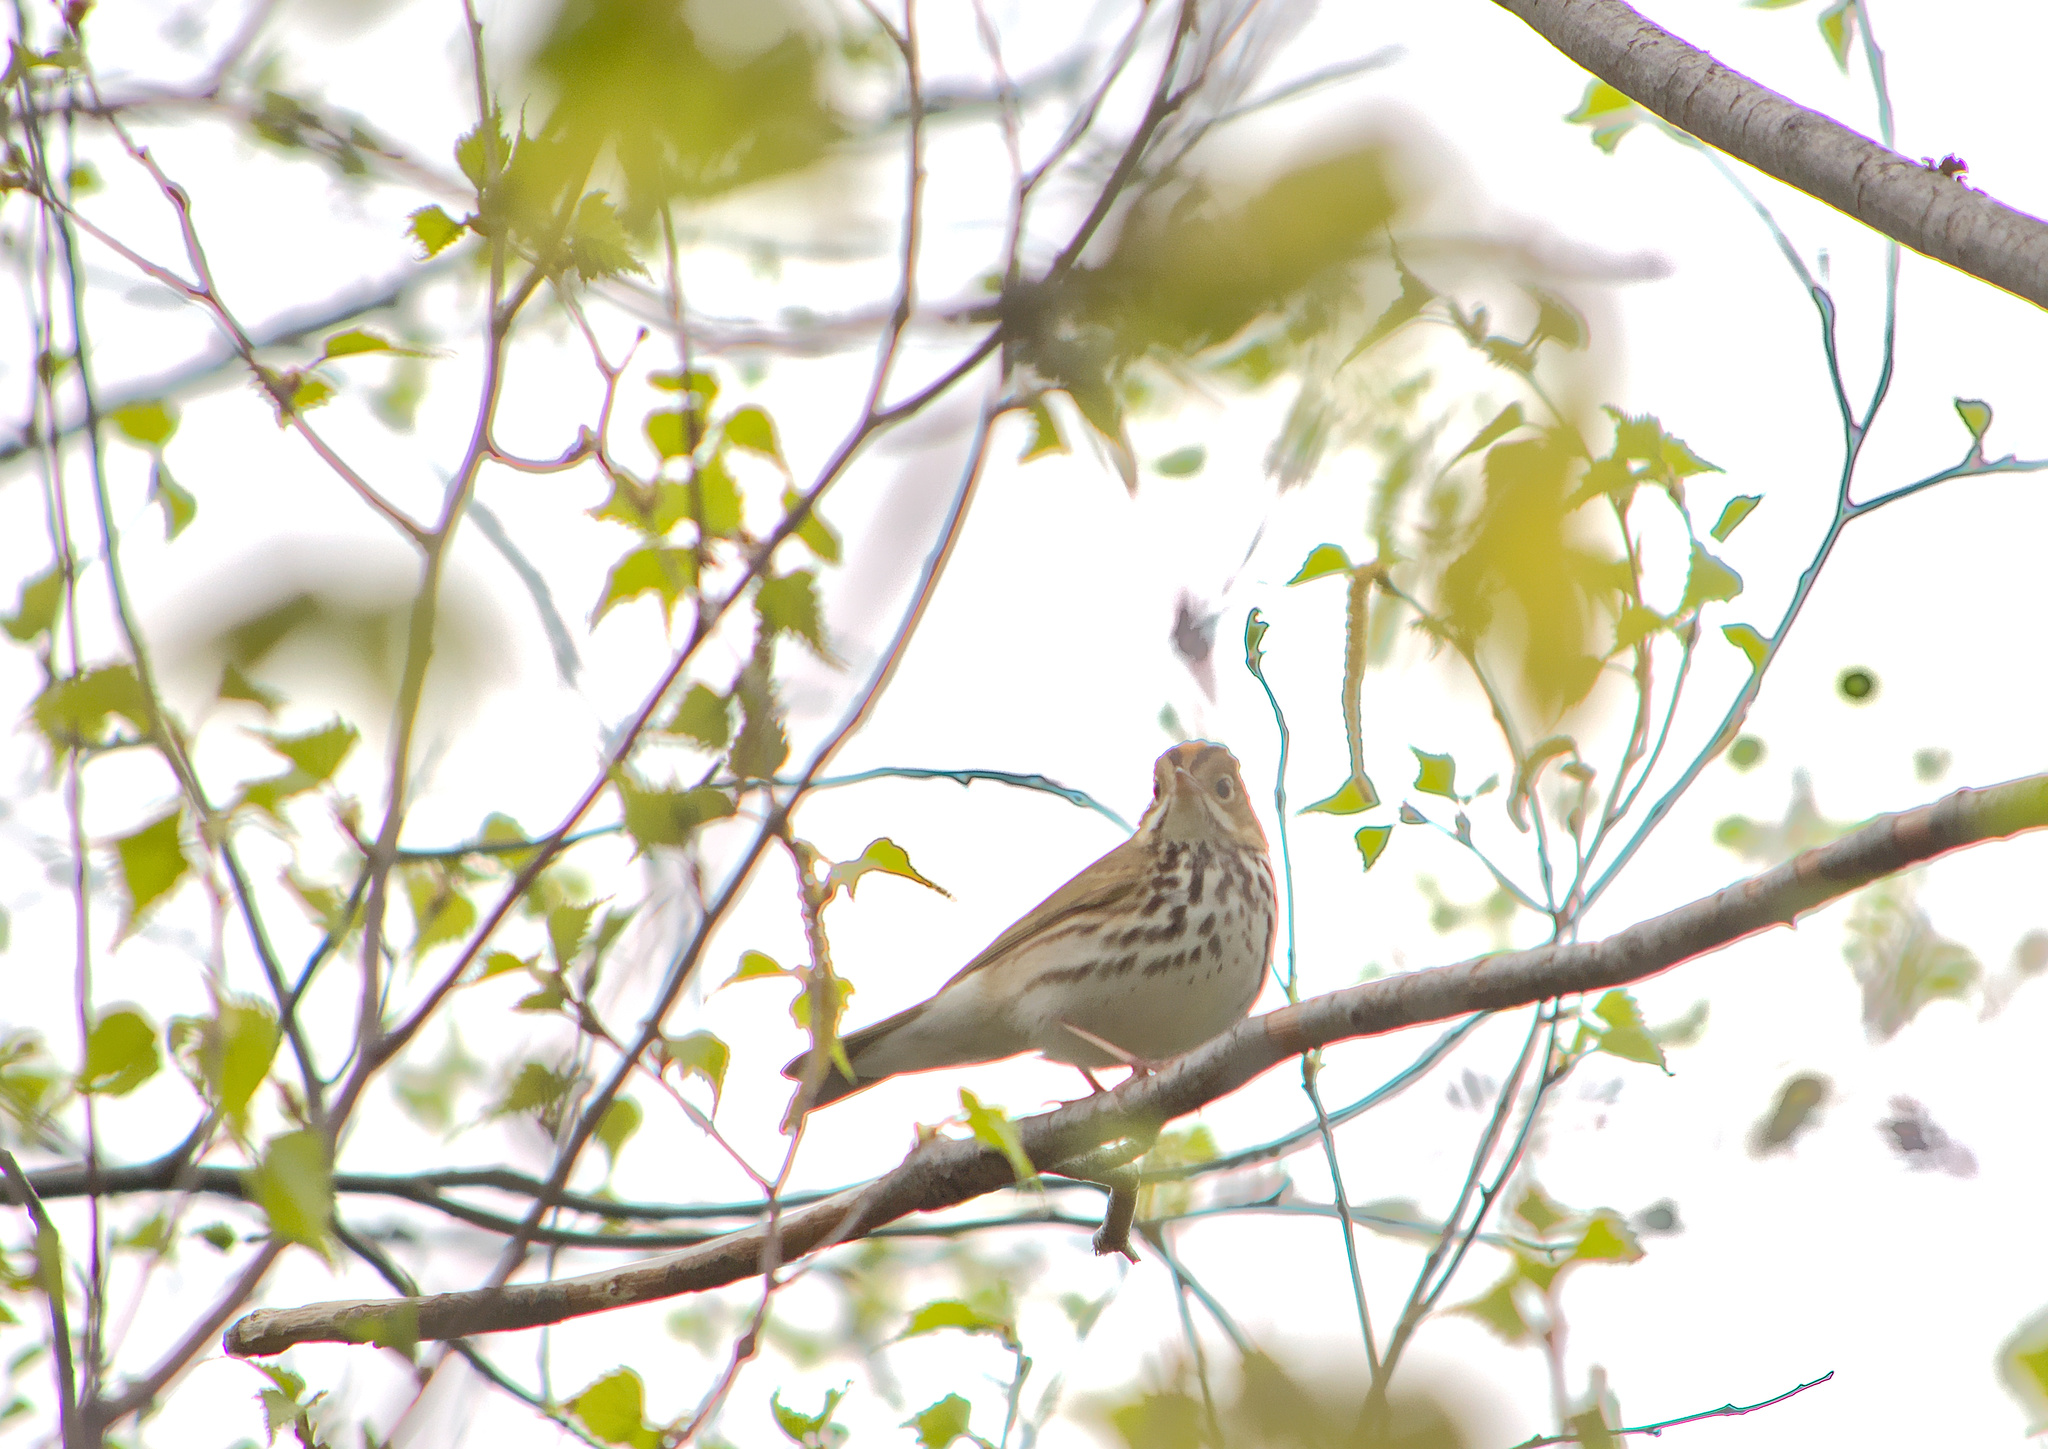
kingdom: Animalia
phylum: Chordata
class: Aves
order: Passeriformes
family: Parulidae
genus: Seiurus
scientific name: Seiurus aurocapilla
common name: Ovenbird
